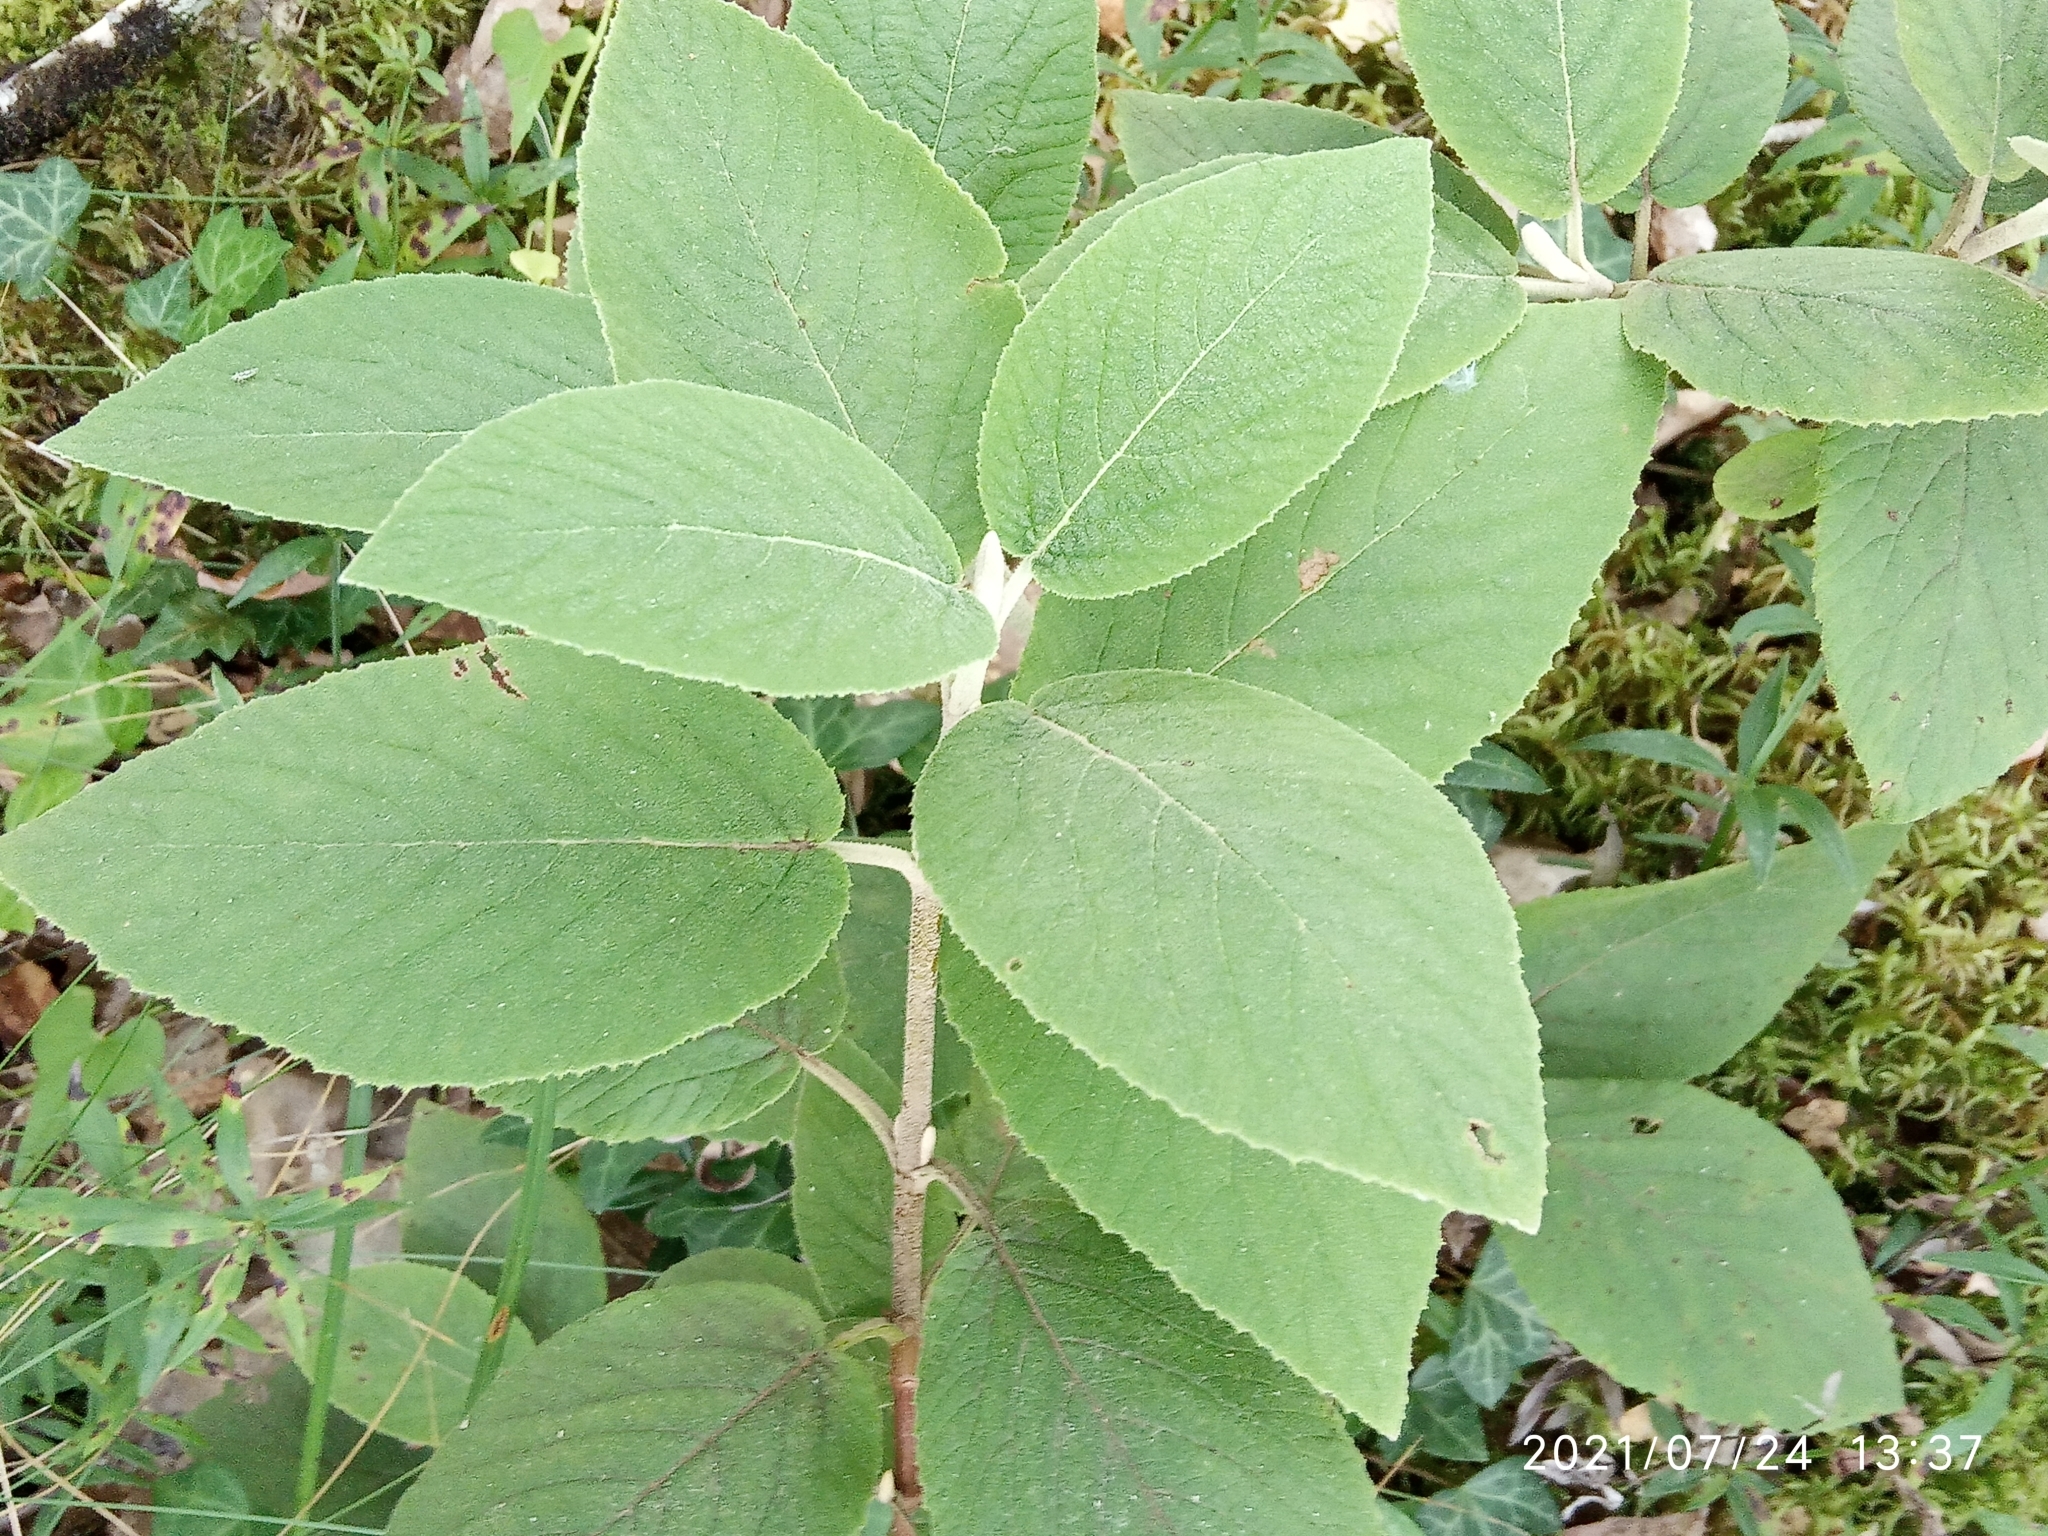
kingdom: Plantae
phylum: Tracheophyta
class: Magnoliopsida
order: Dipsacales
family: Viburnaceae
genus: Viburnum
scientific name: Viburnum lantana
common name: Wayfaring tree
